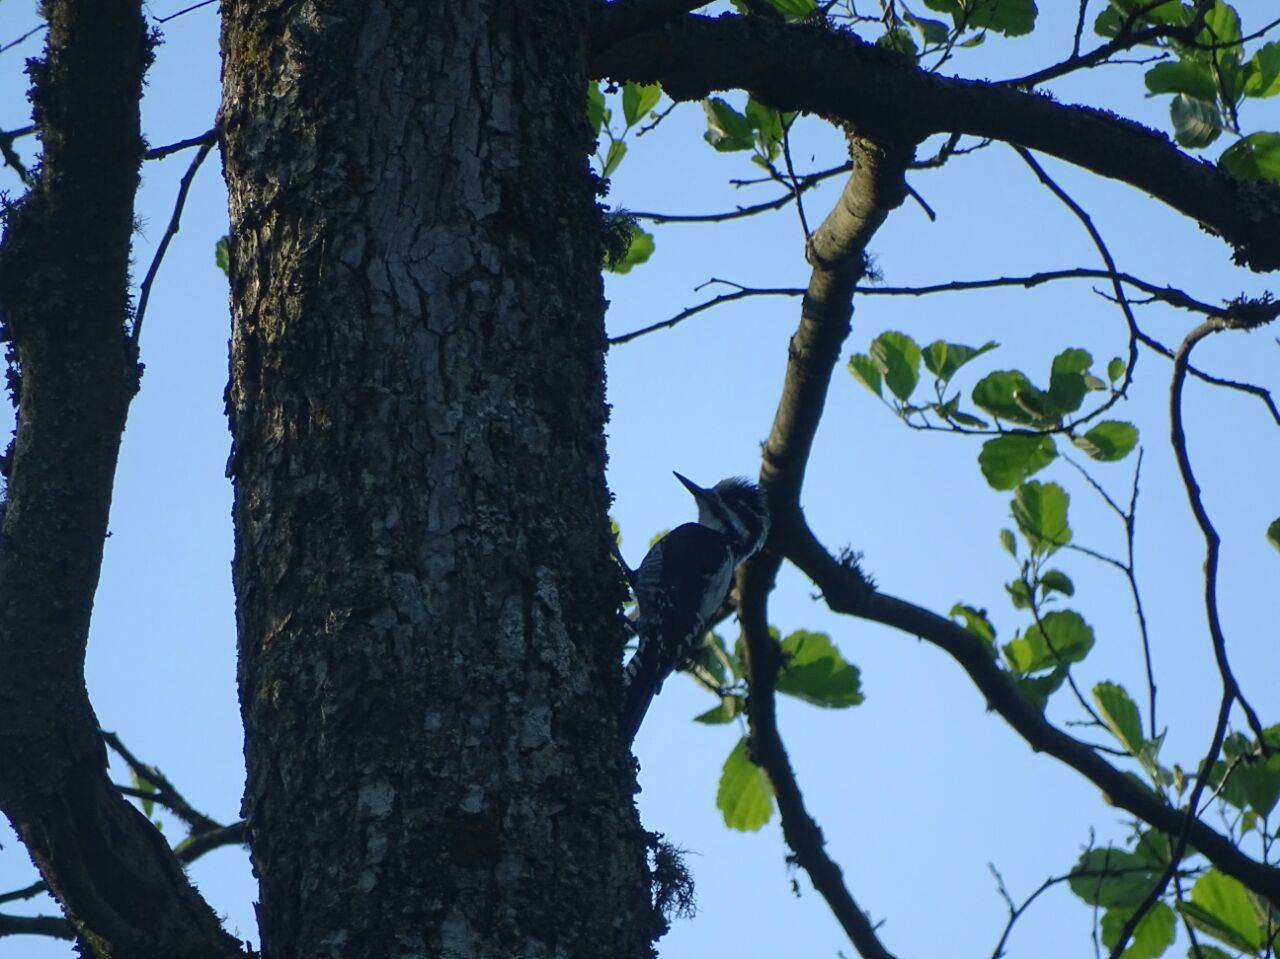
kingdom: Animalia
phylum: Chordata
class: Aves
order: Piciformes
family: Picidae
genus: Picoides
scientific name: Picoides tridactylus
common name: Eurasian three-toed woodpecker
